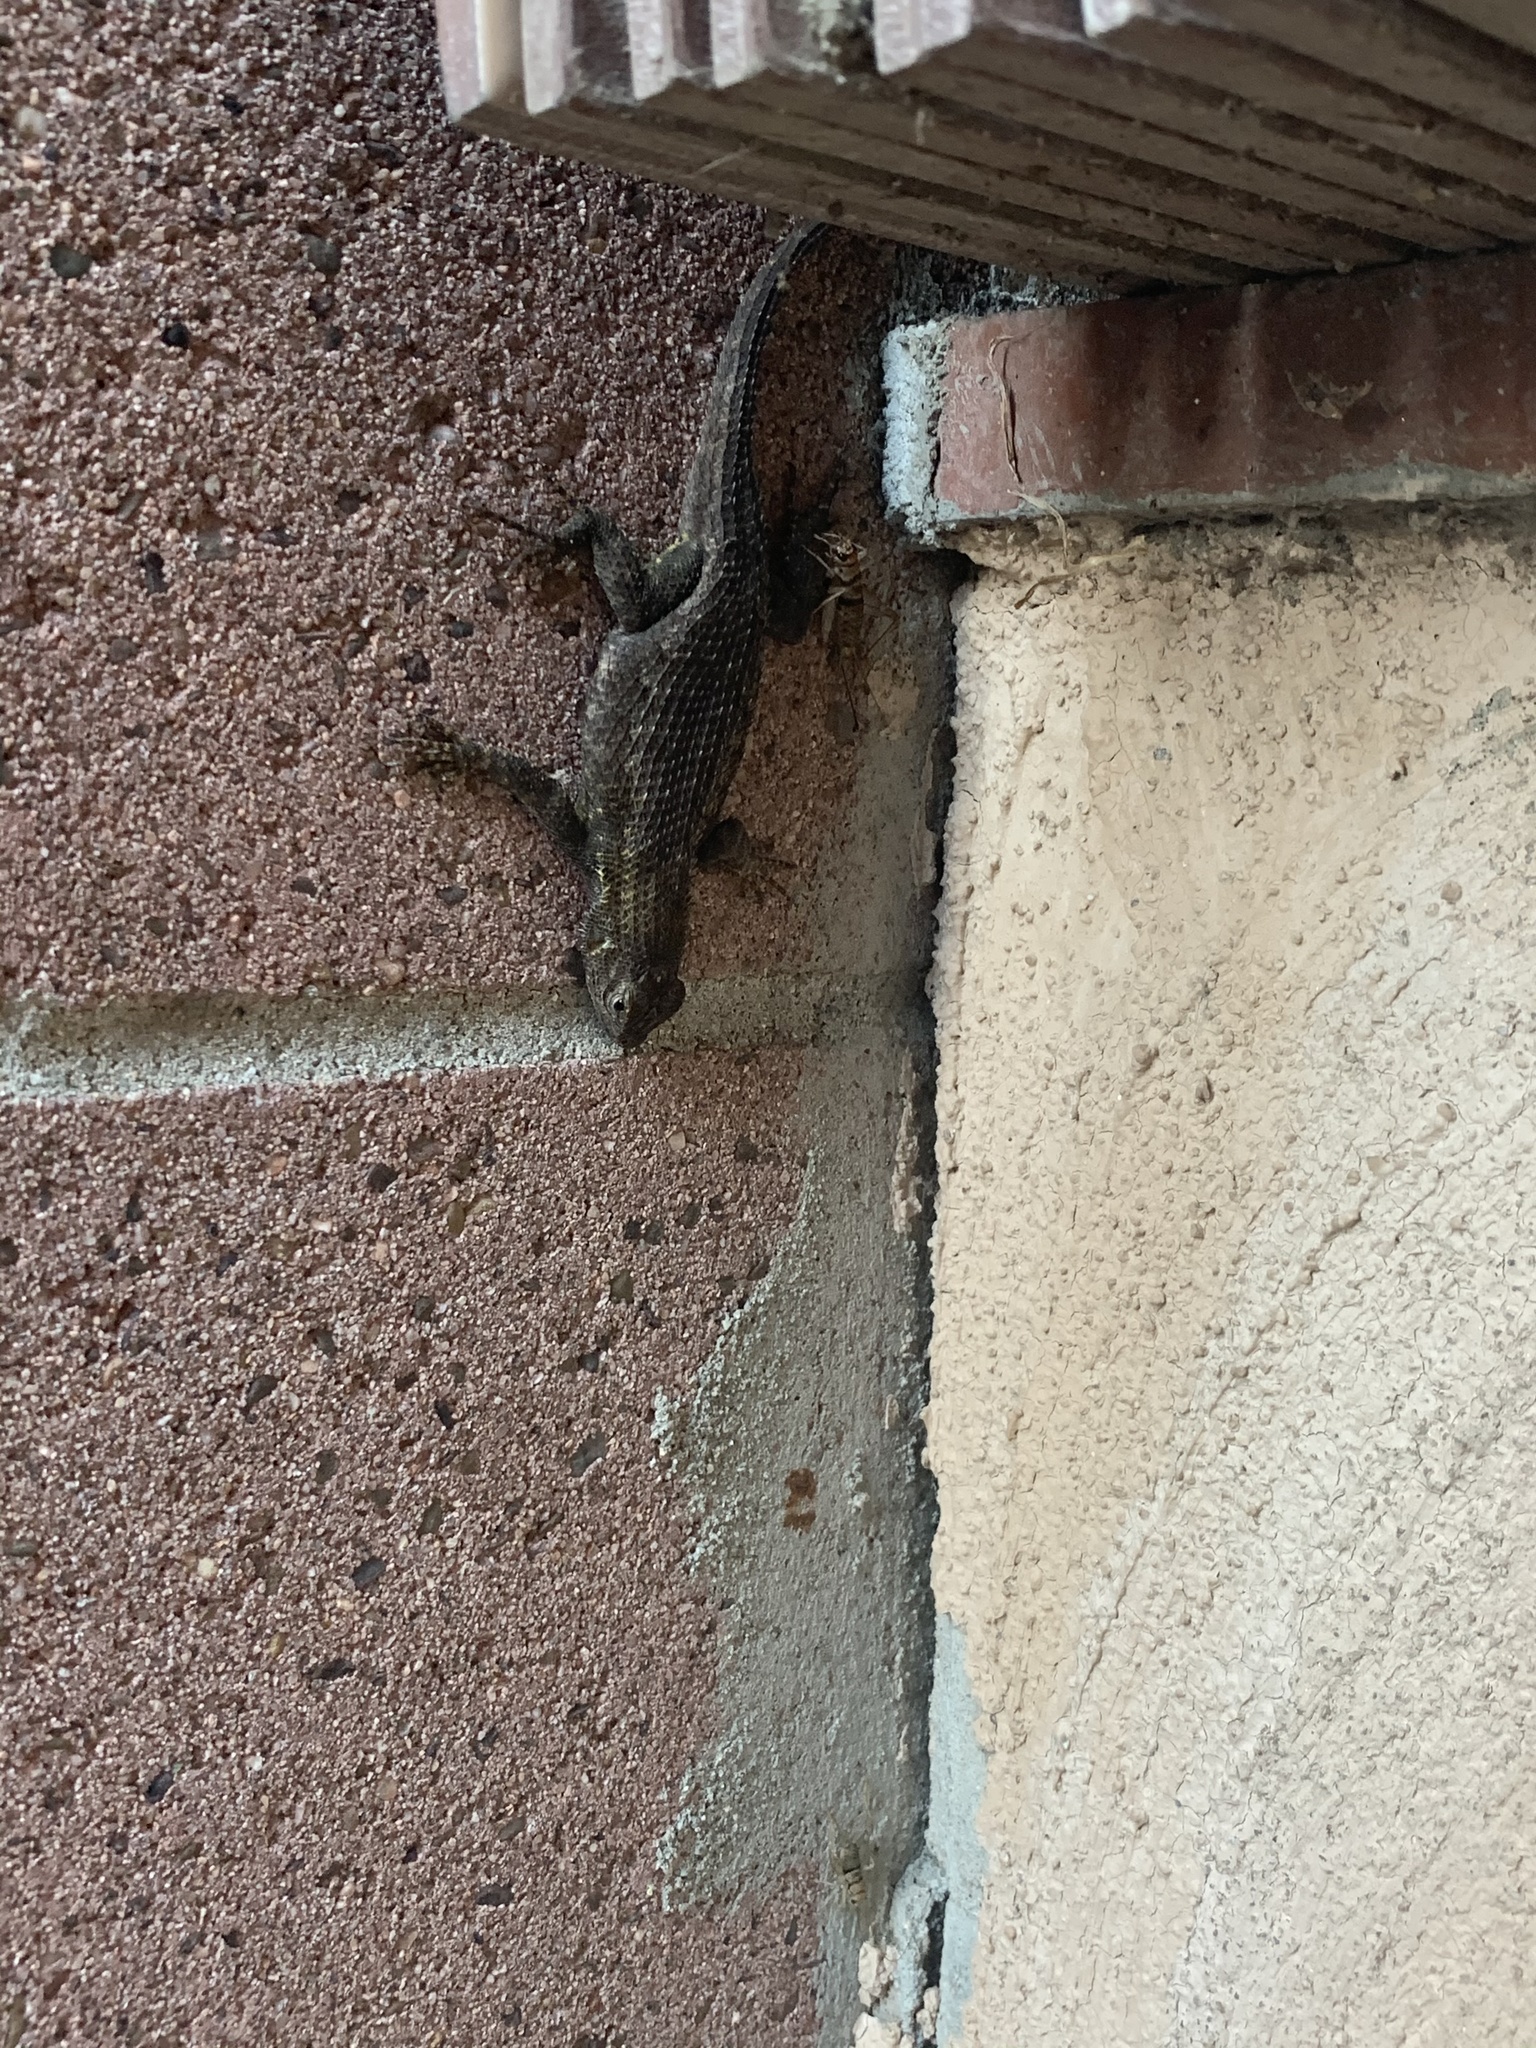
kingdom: Animalia
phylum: Chordata
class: Squamata
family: Phrynosomatidae
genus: Sceloporus
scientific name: Sceloporus occidentalis
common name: Western fence lizard
